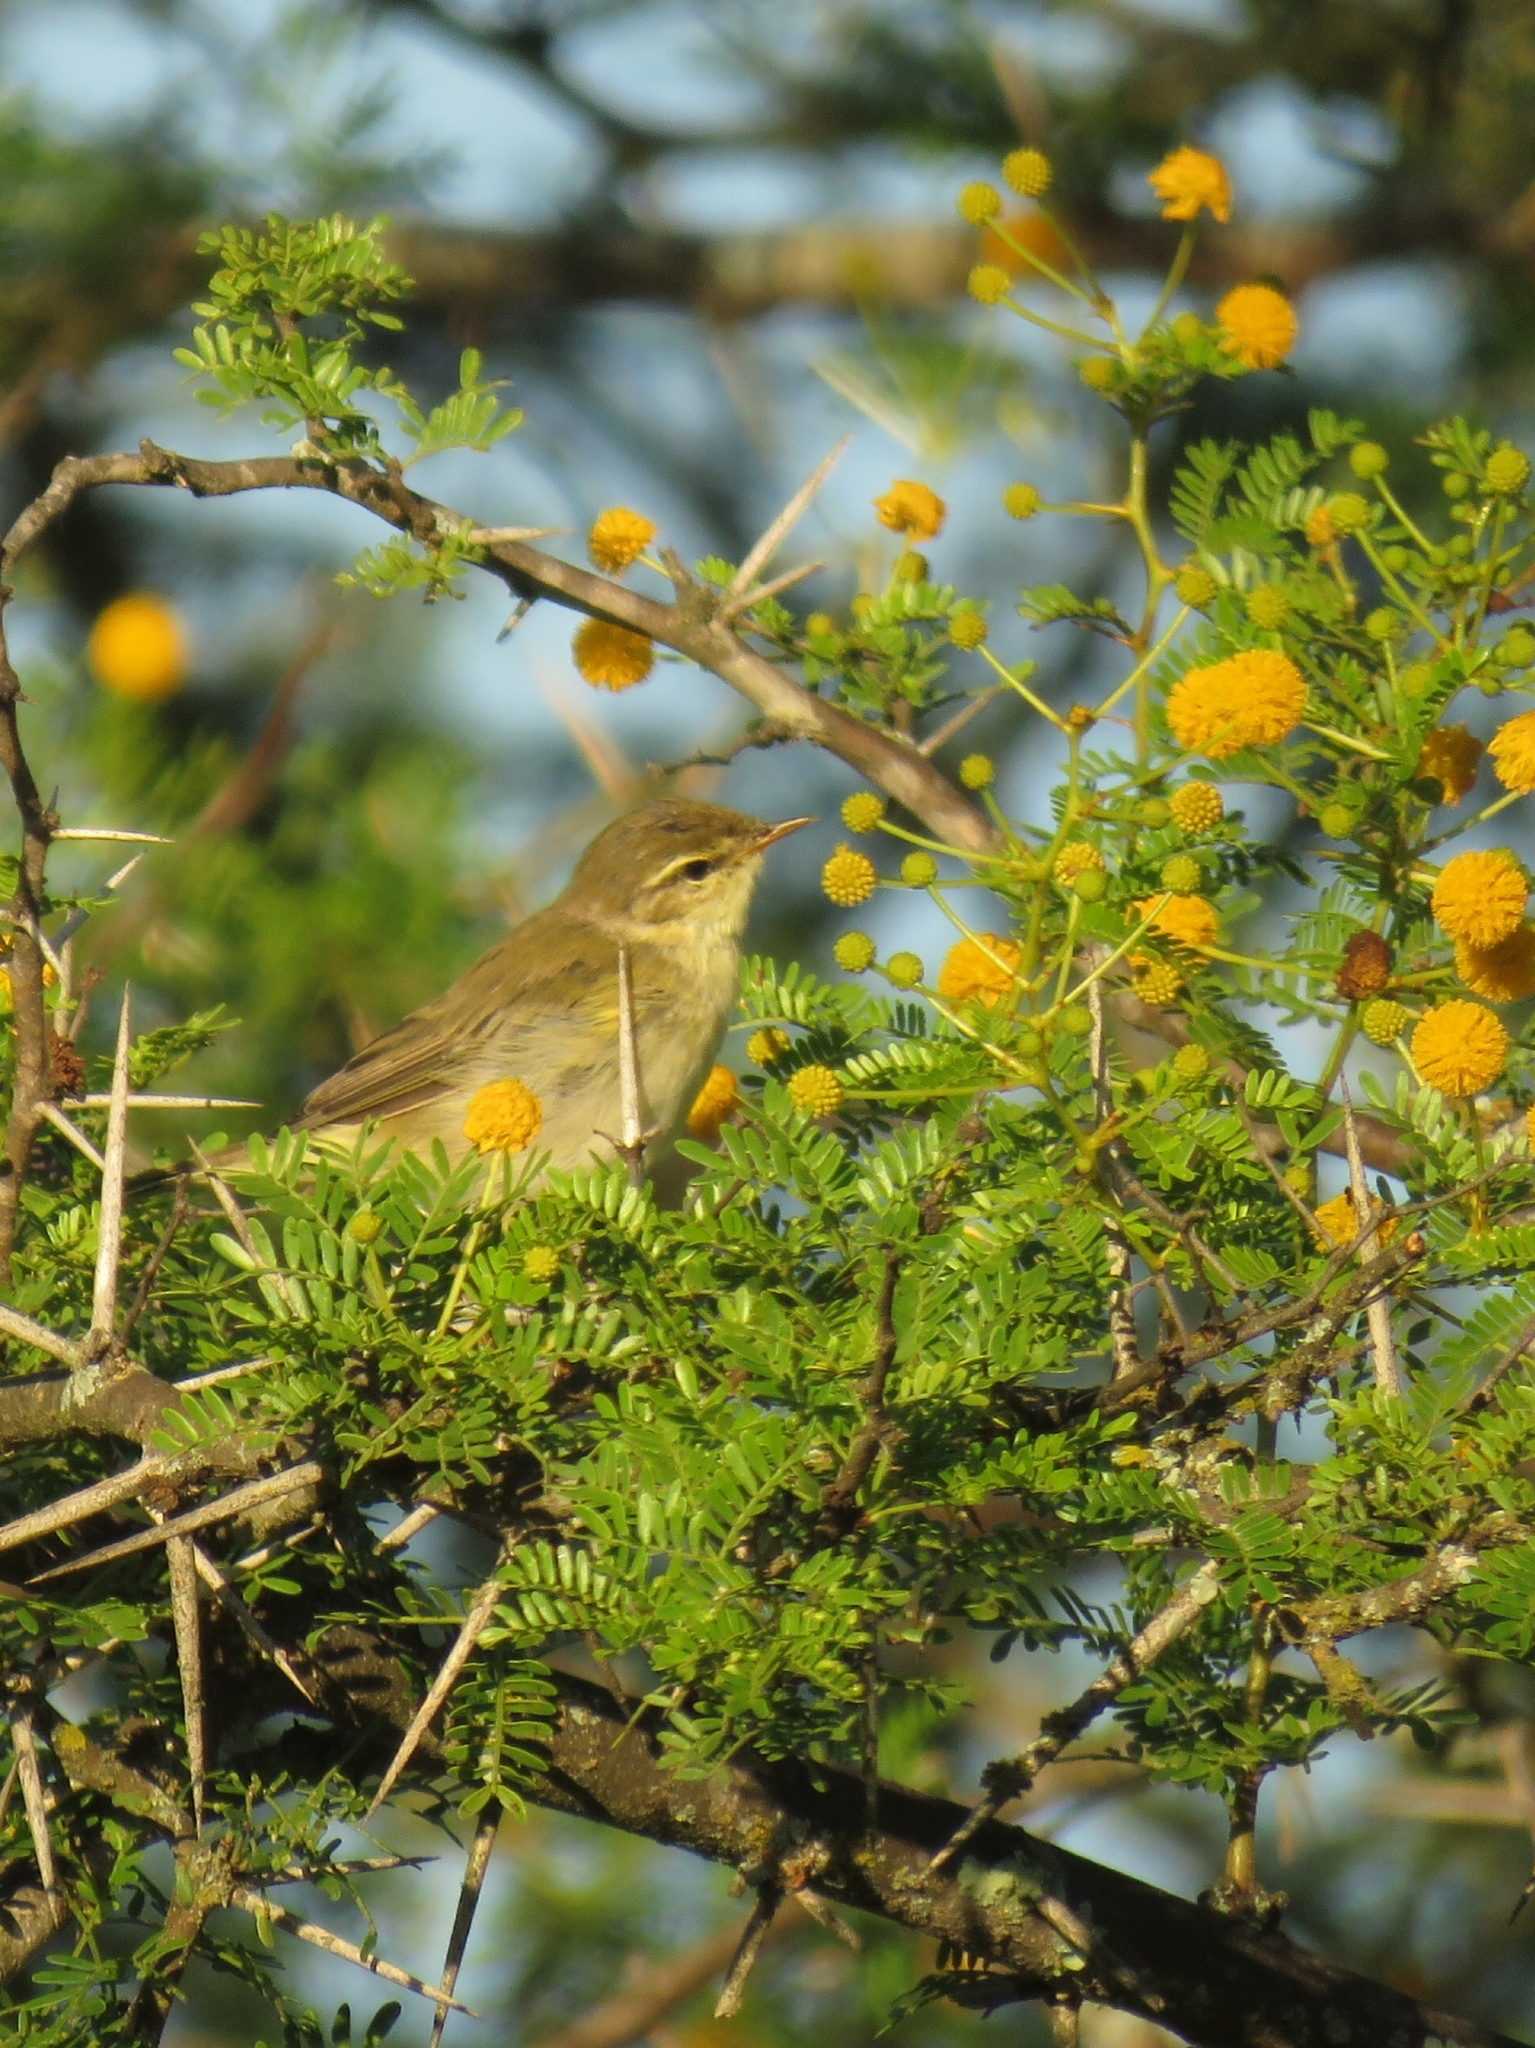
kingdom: Animalia
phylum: Chordata
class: Aves
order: Passeriformes
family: Phylloscopidae
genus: Phylloscopus
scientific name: Phylloscopus trochilus
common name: Willow warbler
